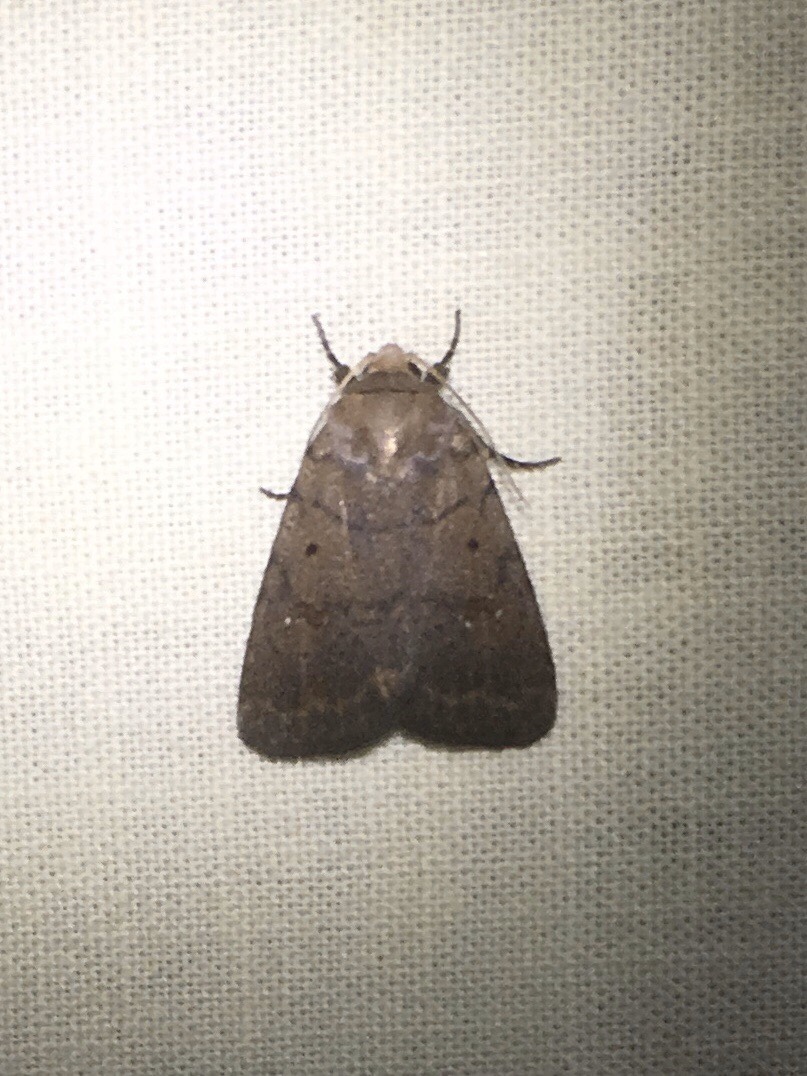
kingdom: Animalia
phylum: Arthropoda
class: Insecta
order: Lepidoptera
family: Noctuidae
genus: Athetis
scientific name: Athetis tarda
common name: Slowpoke moth
